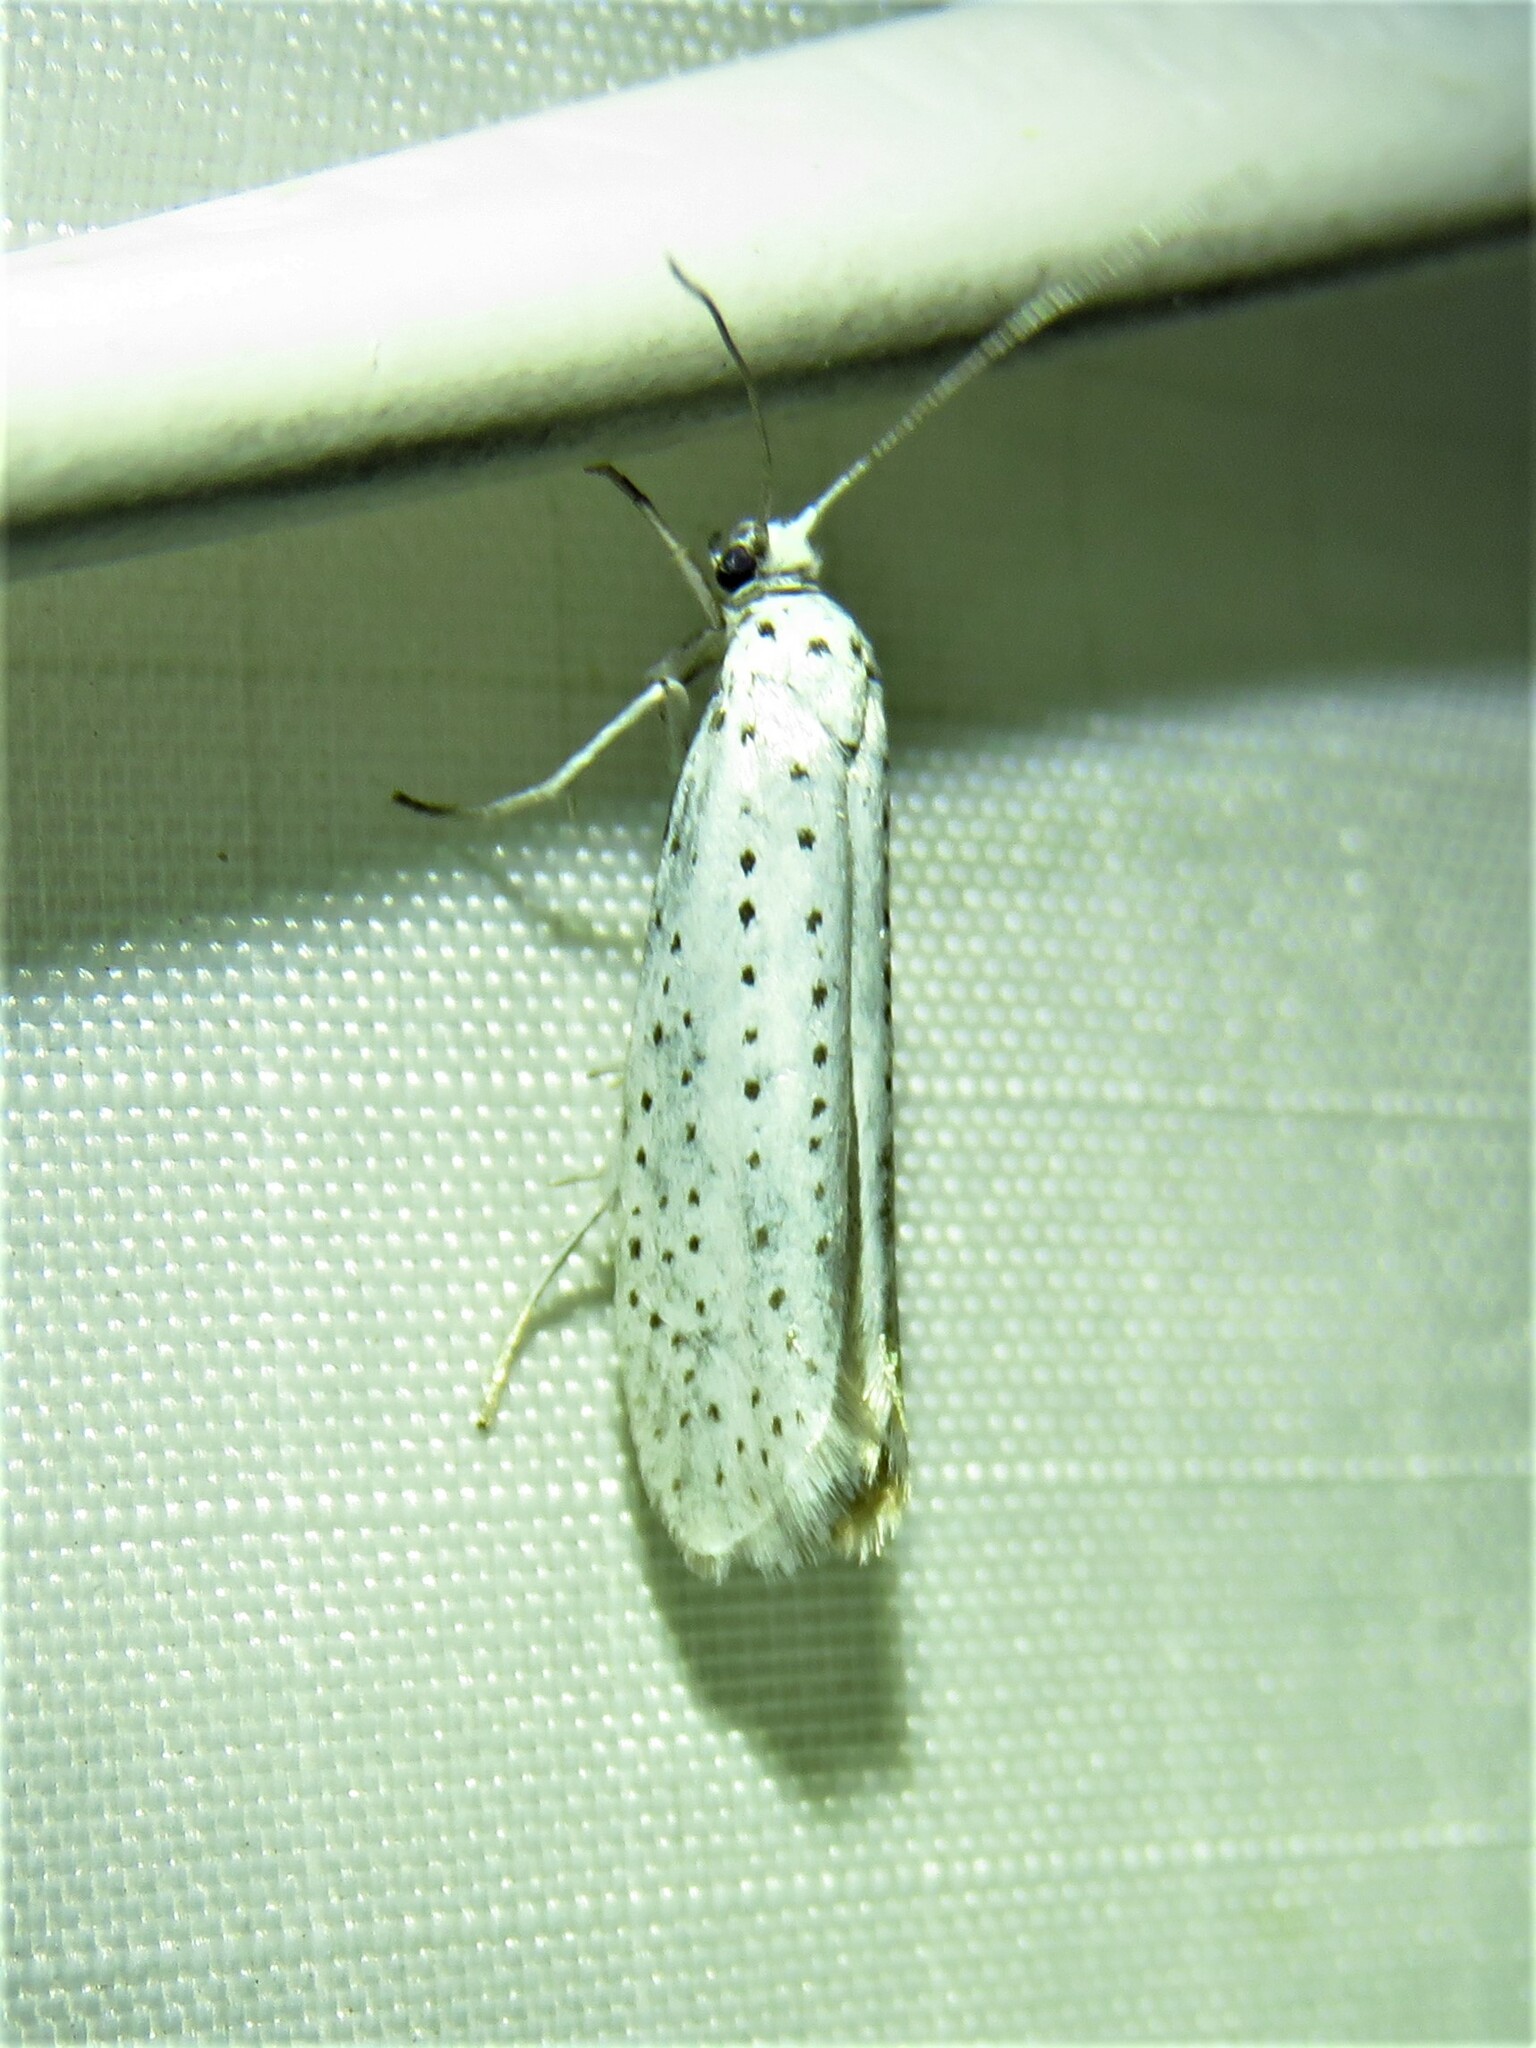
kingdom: Animalia
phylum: Arthropoda
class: Insecta
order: Lepidoptera
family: Yponomeutidae
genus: Yponomeuta
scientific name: Yponomeuta evonymella
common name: Bird-cherry ermine
